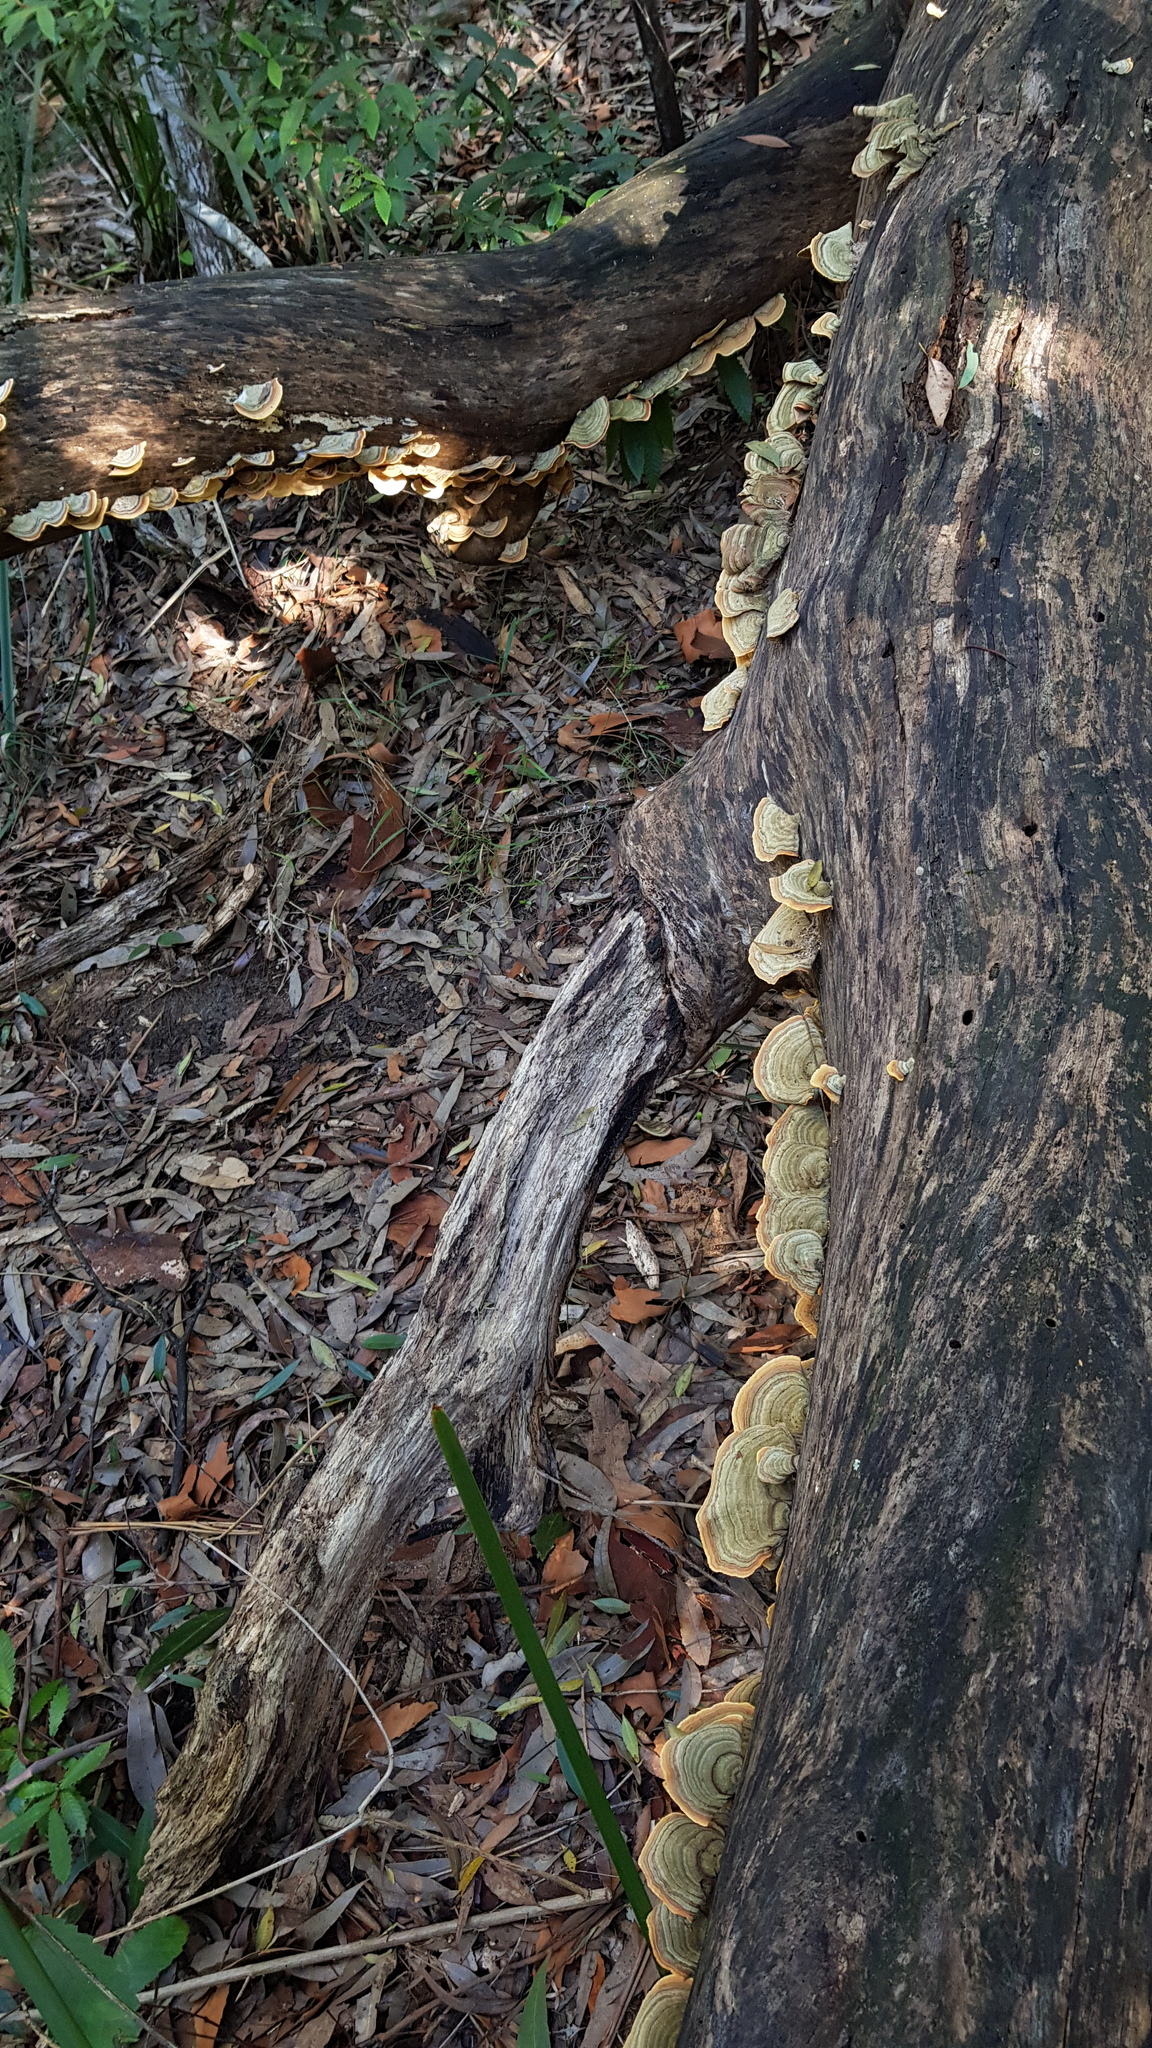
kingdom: Fungi
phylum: Basidiomycota
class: Agaricomycetes
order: Russulales
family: Stereaceae
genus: Stereum
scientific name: Stereum ostrea
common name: False turkeytail
